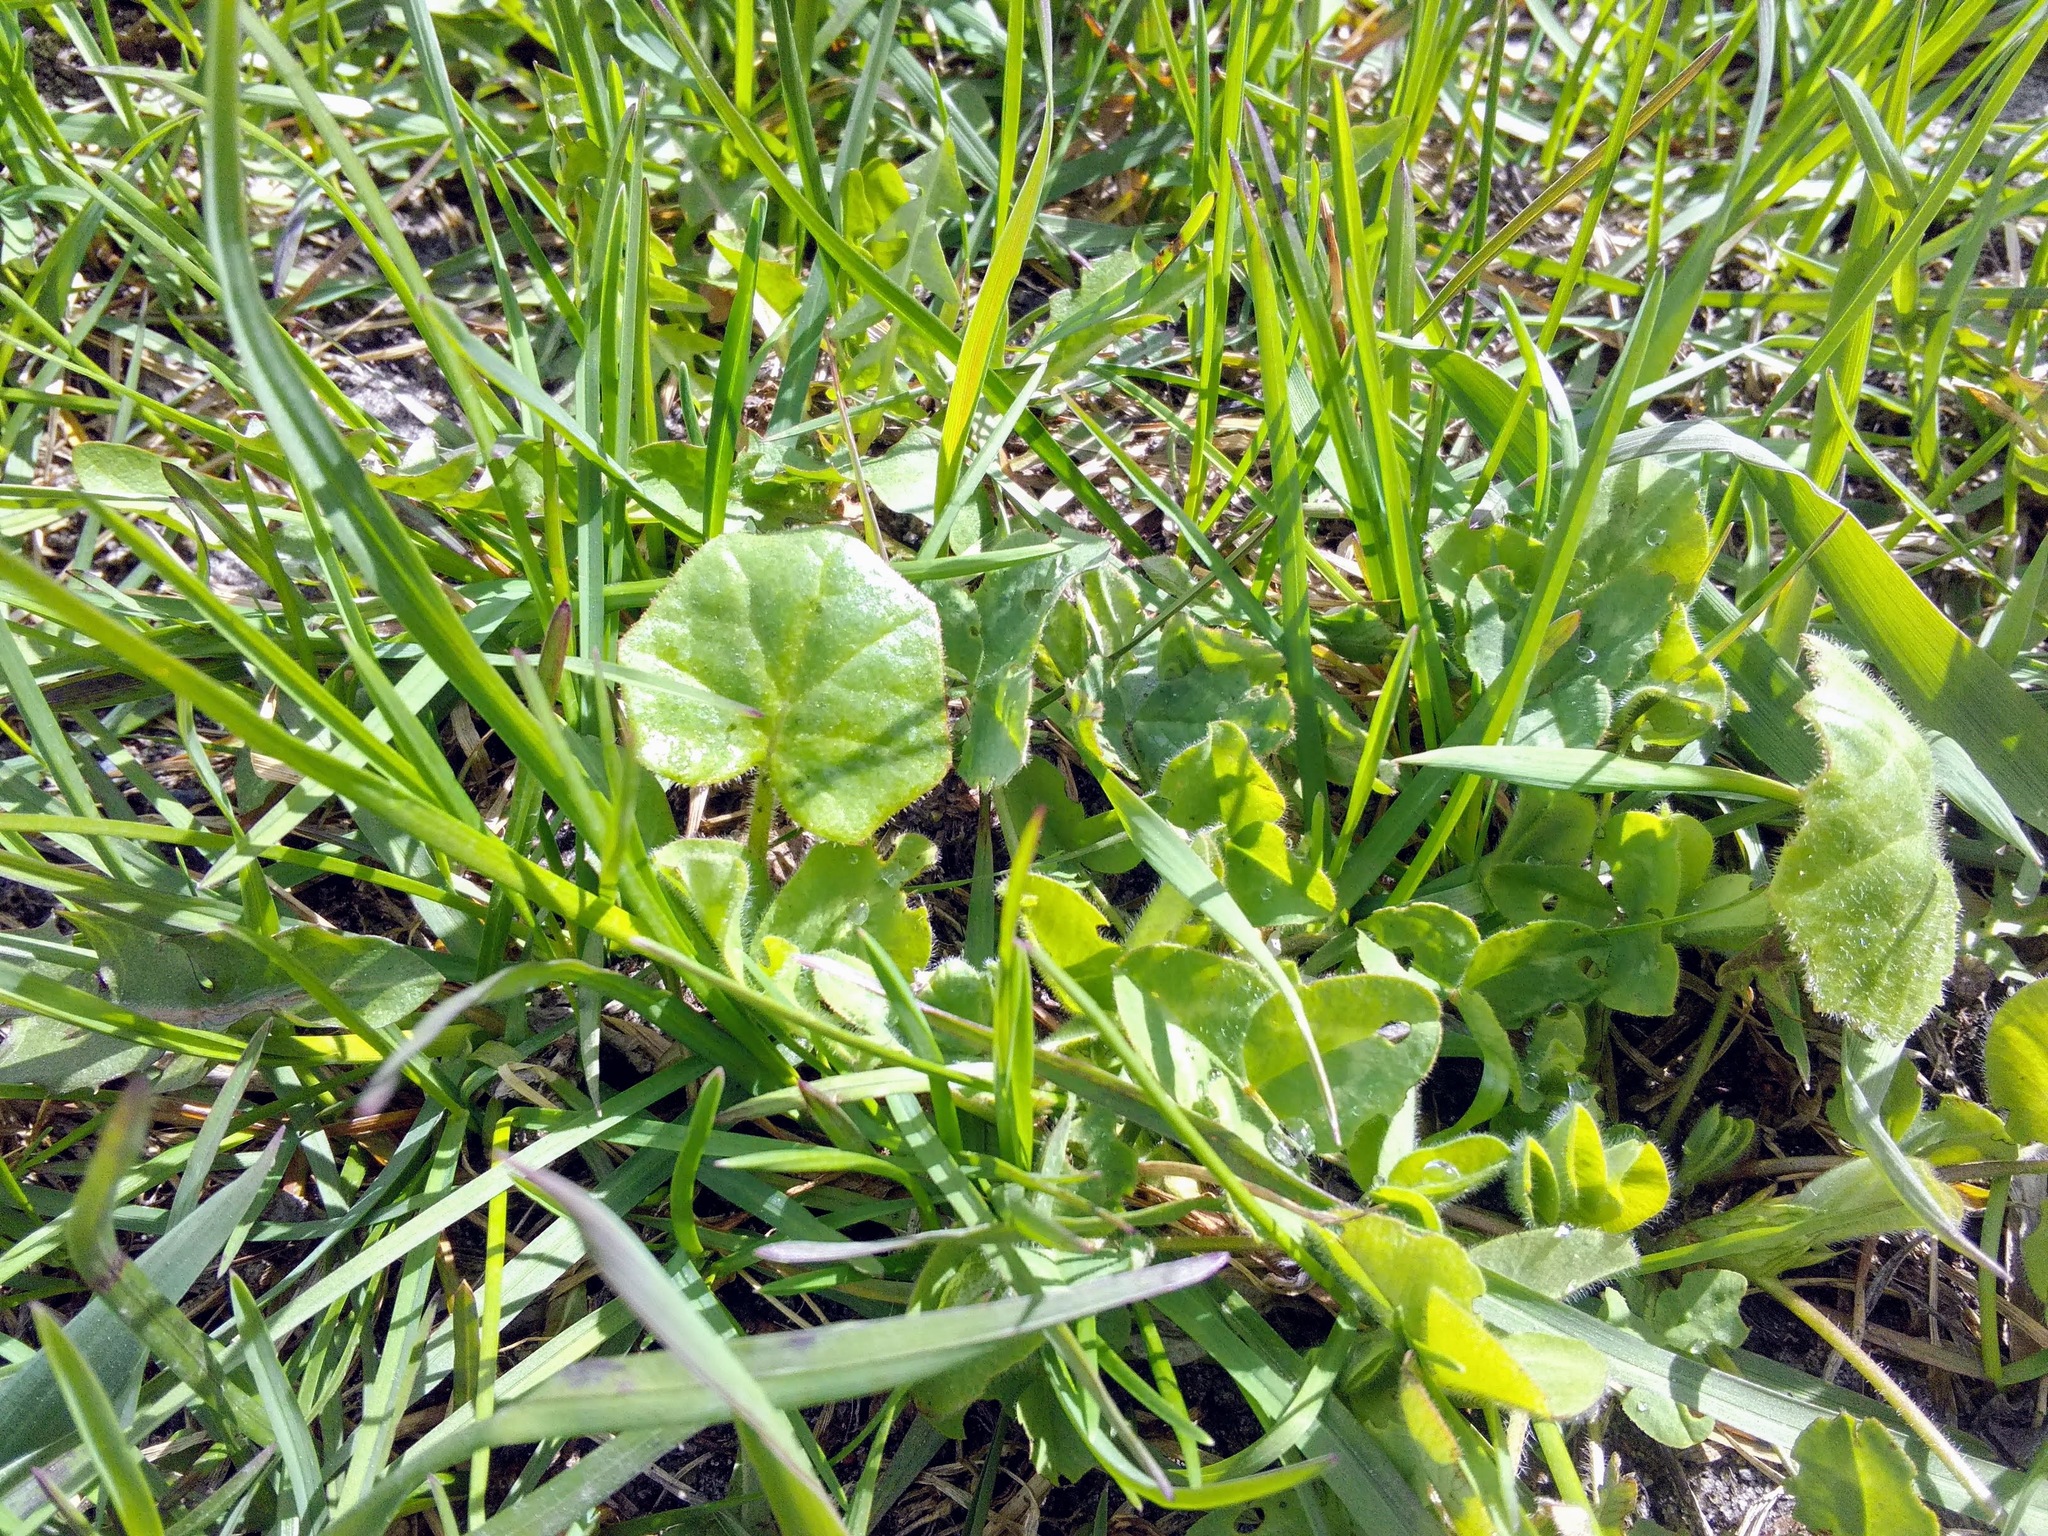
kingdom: Plantae
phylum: Tracheophyta
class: Magnoliopsida
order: Asterales
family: Asteraceae
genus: Tussilago
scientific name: Tussilago farfara
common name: Coltsfoot
